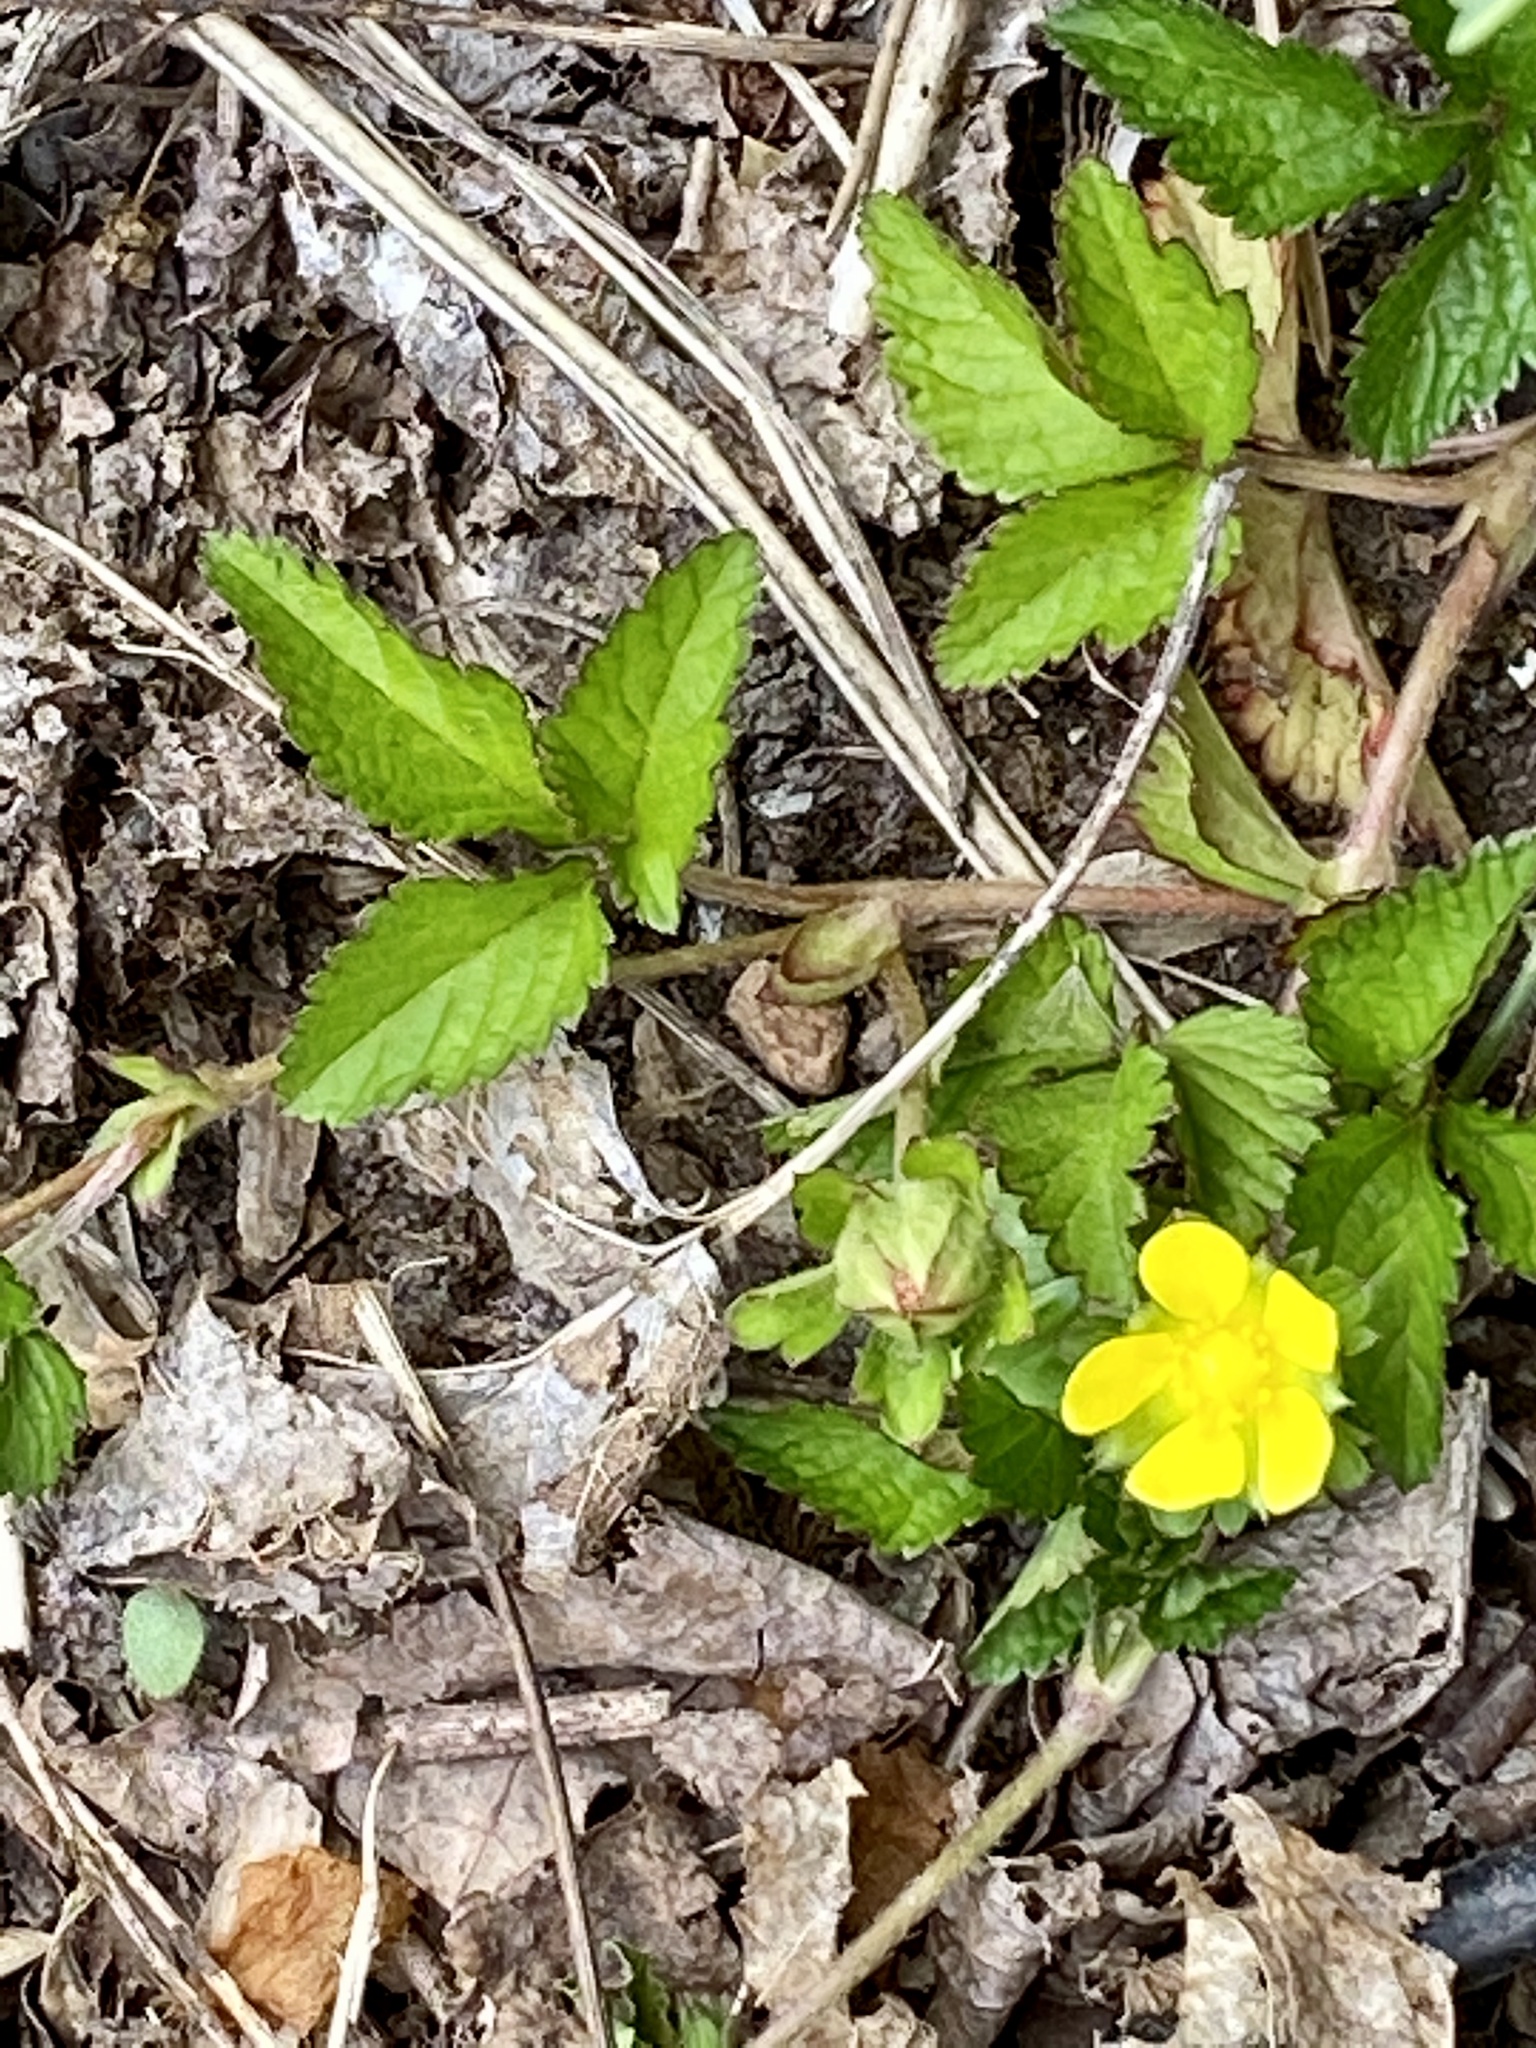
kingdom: Plantae
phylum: Tracheophyta
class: Magnoliopsida
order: Rosales
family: Rosaceae
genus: Potentilla
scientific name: Potentilla indica
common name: Yellow-flowered strawberry
